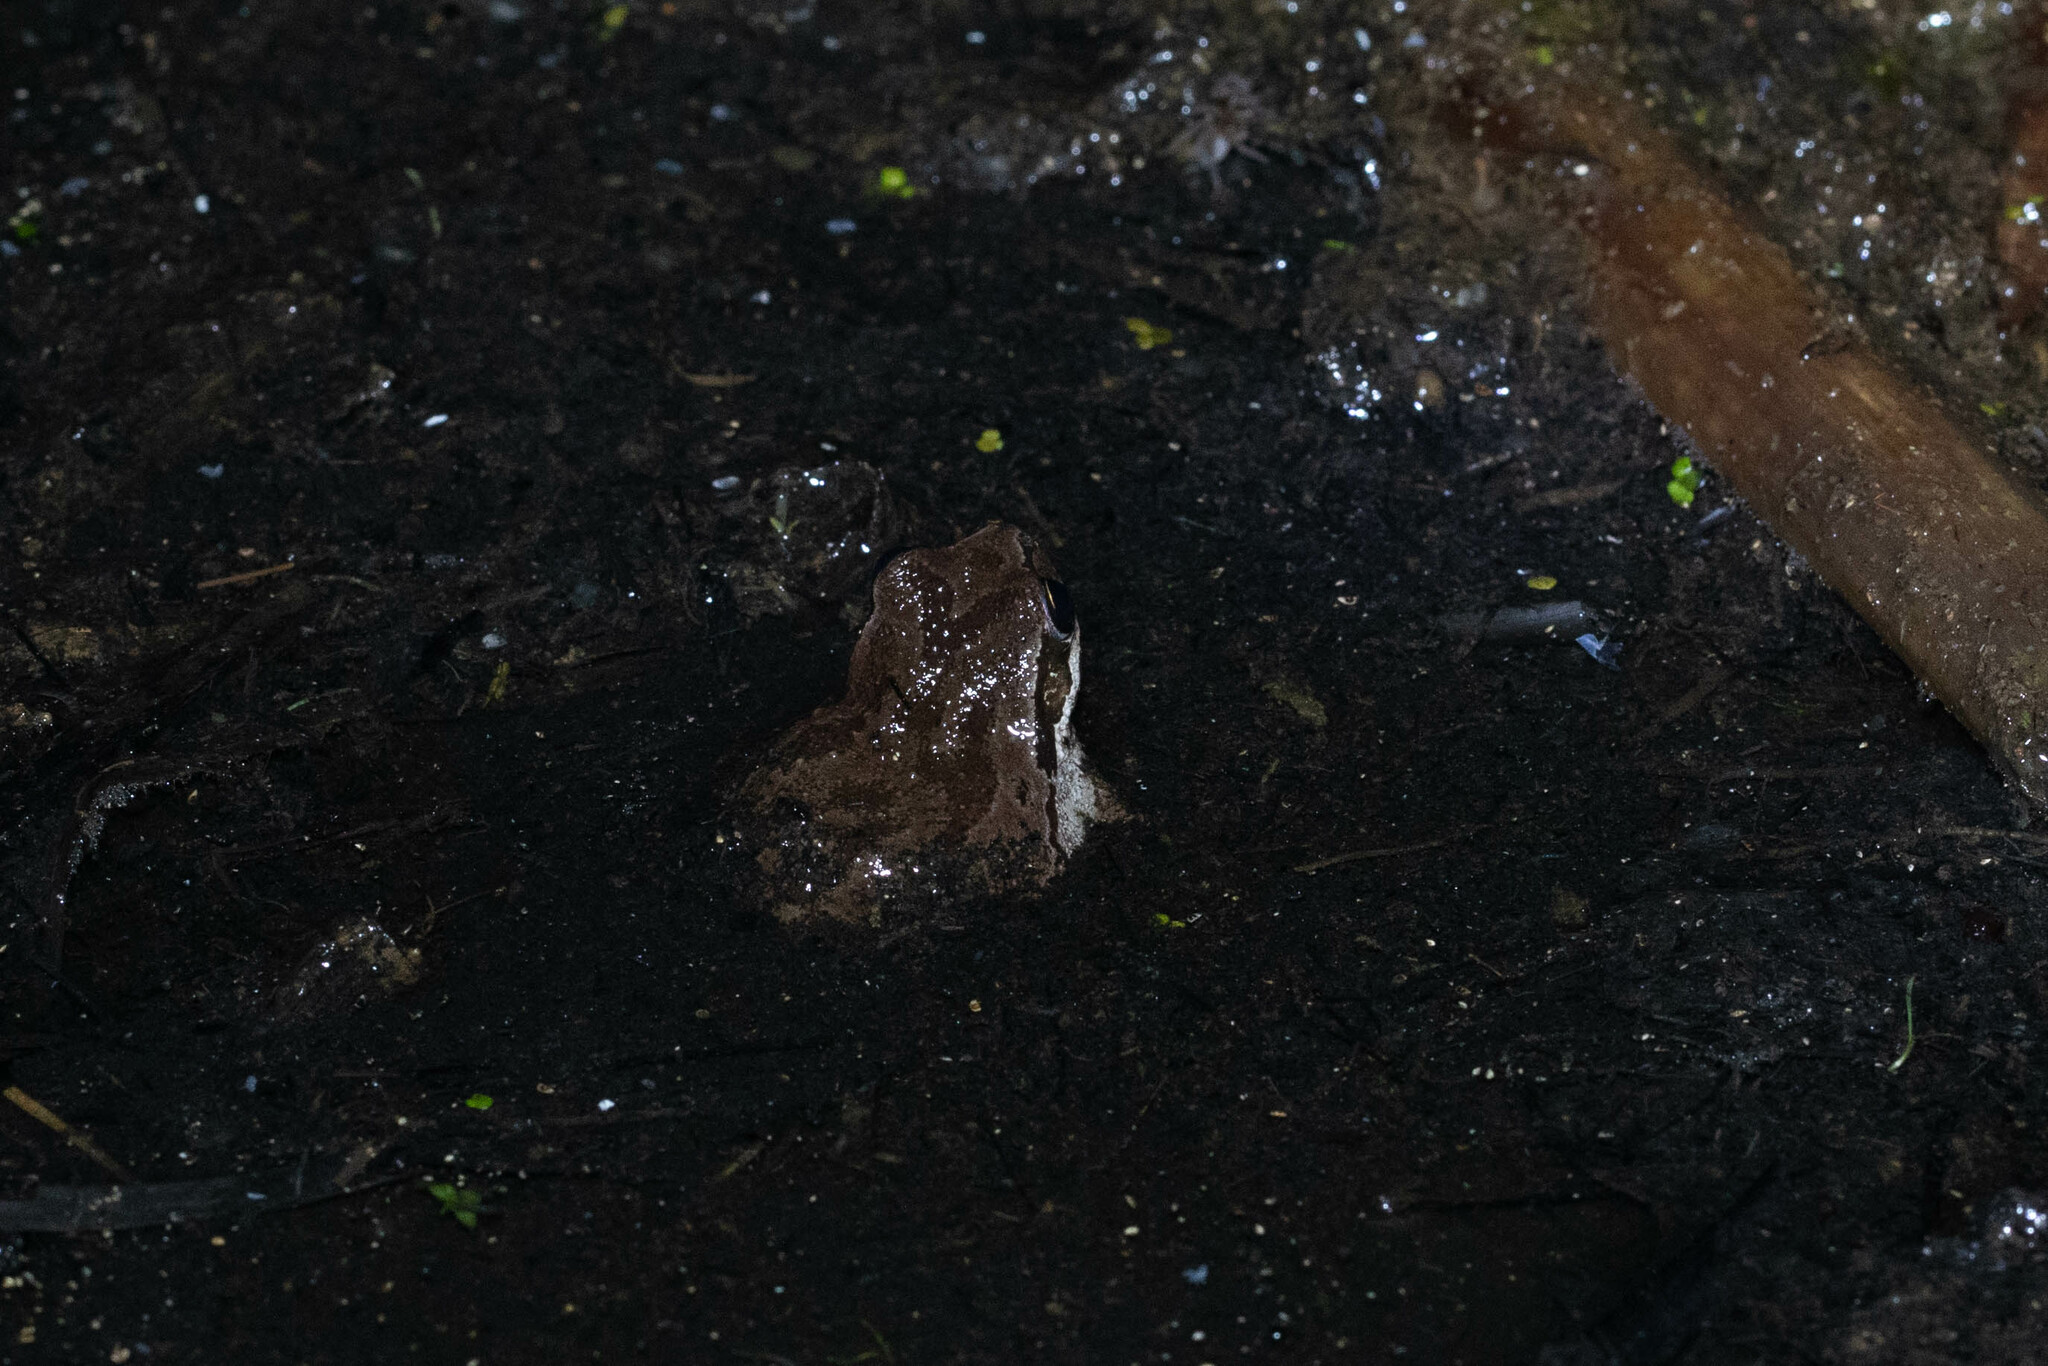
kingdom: Animalia
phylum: Chordata
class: Amphibia
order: Anura
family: Hylidae
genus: Pseudacris
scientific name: Pseudacris regilla
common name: Pacific chorus frog
